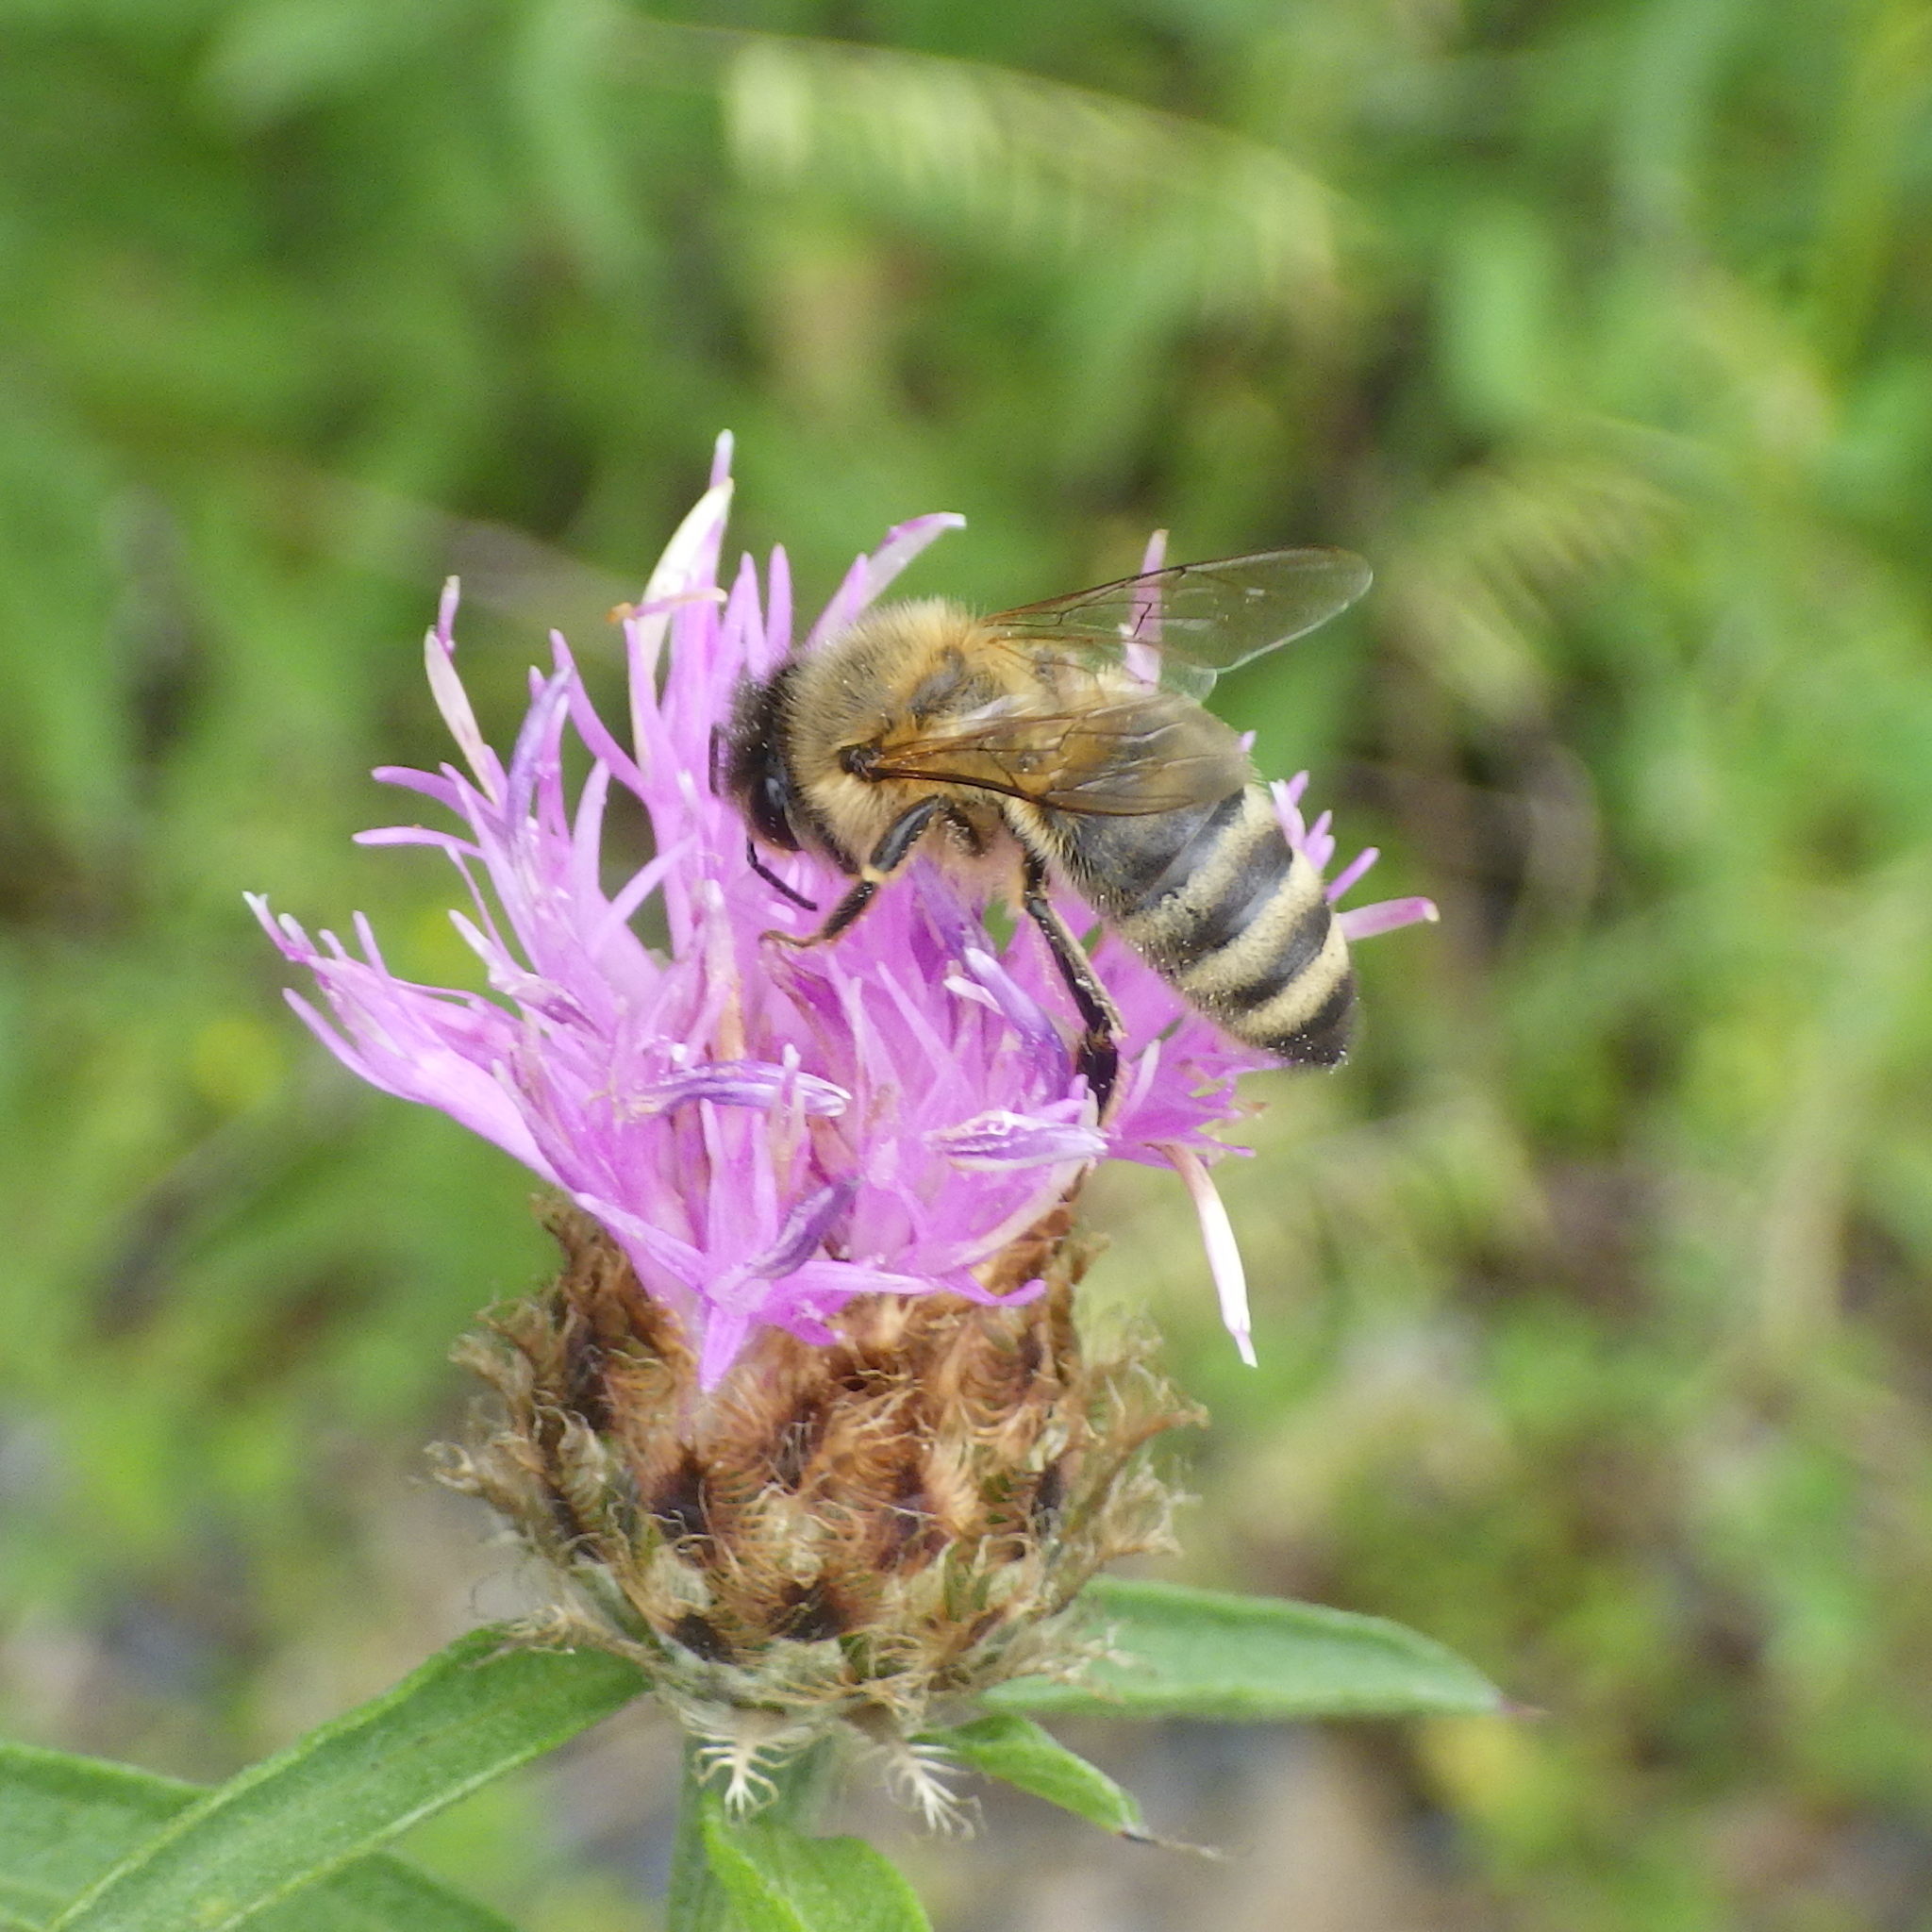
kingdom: Animalia
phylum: Arthropoda
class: Insecta
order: Hymenoptera
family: Apidae
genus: Apis
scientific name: Apis mellifera
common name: Honey bee
